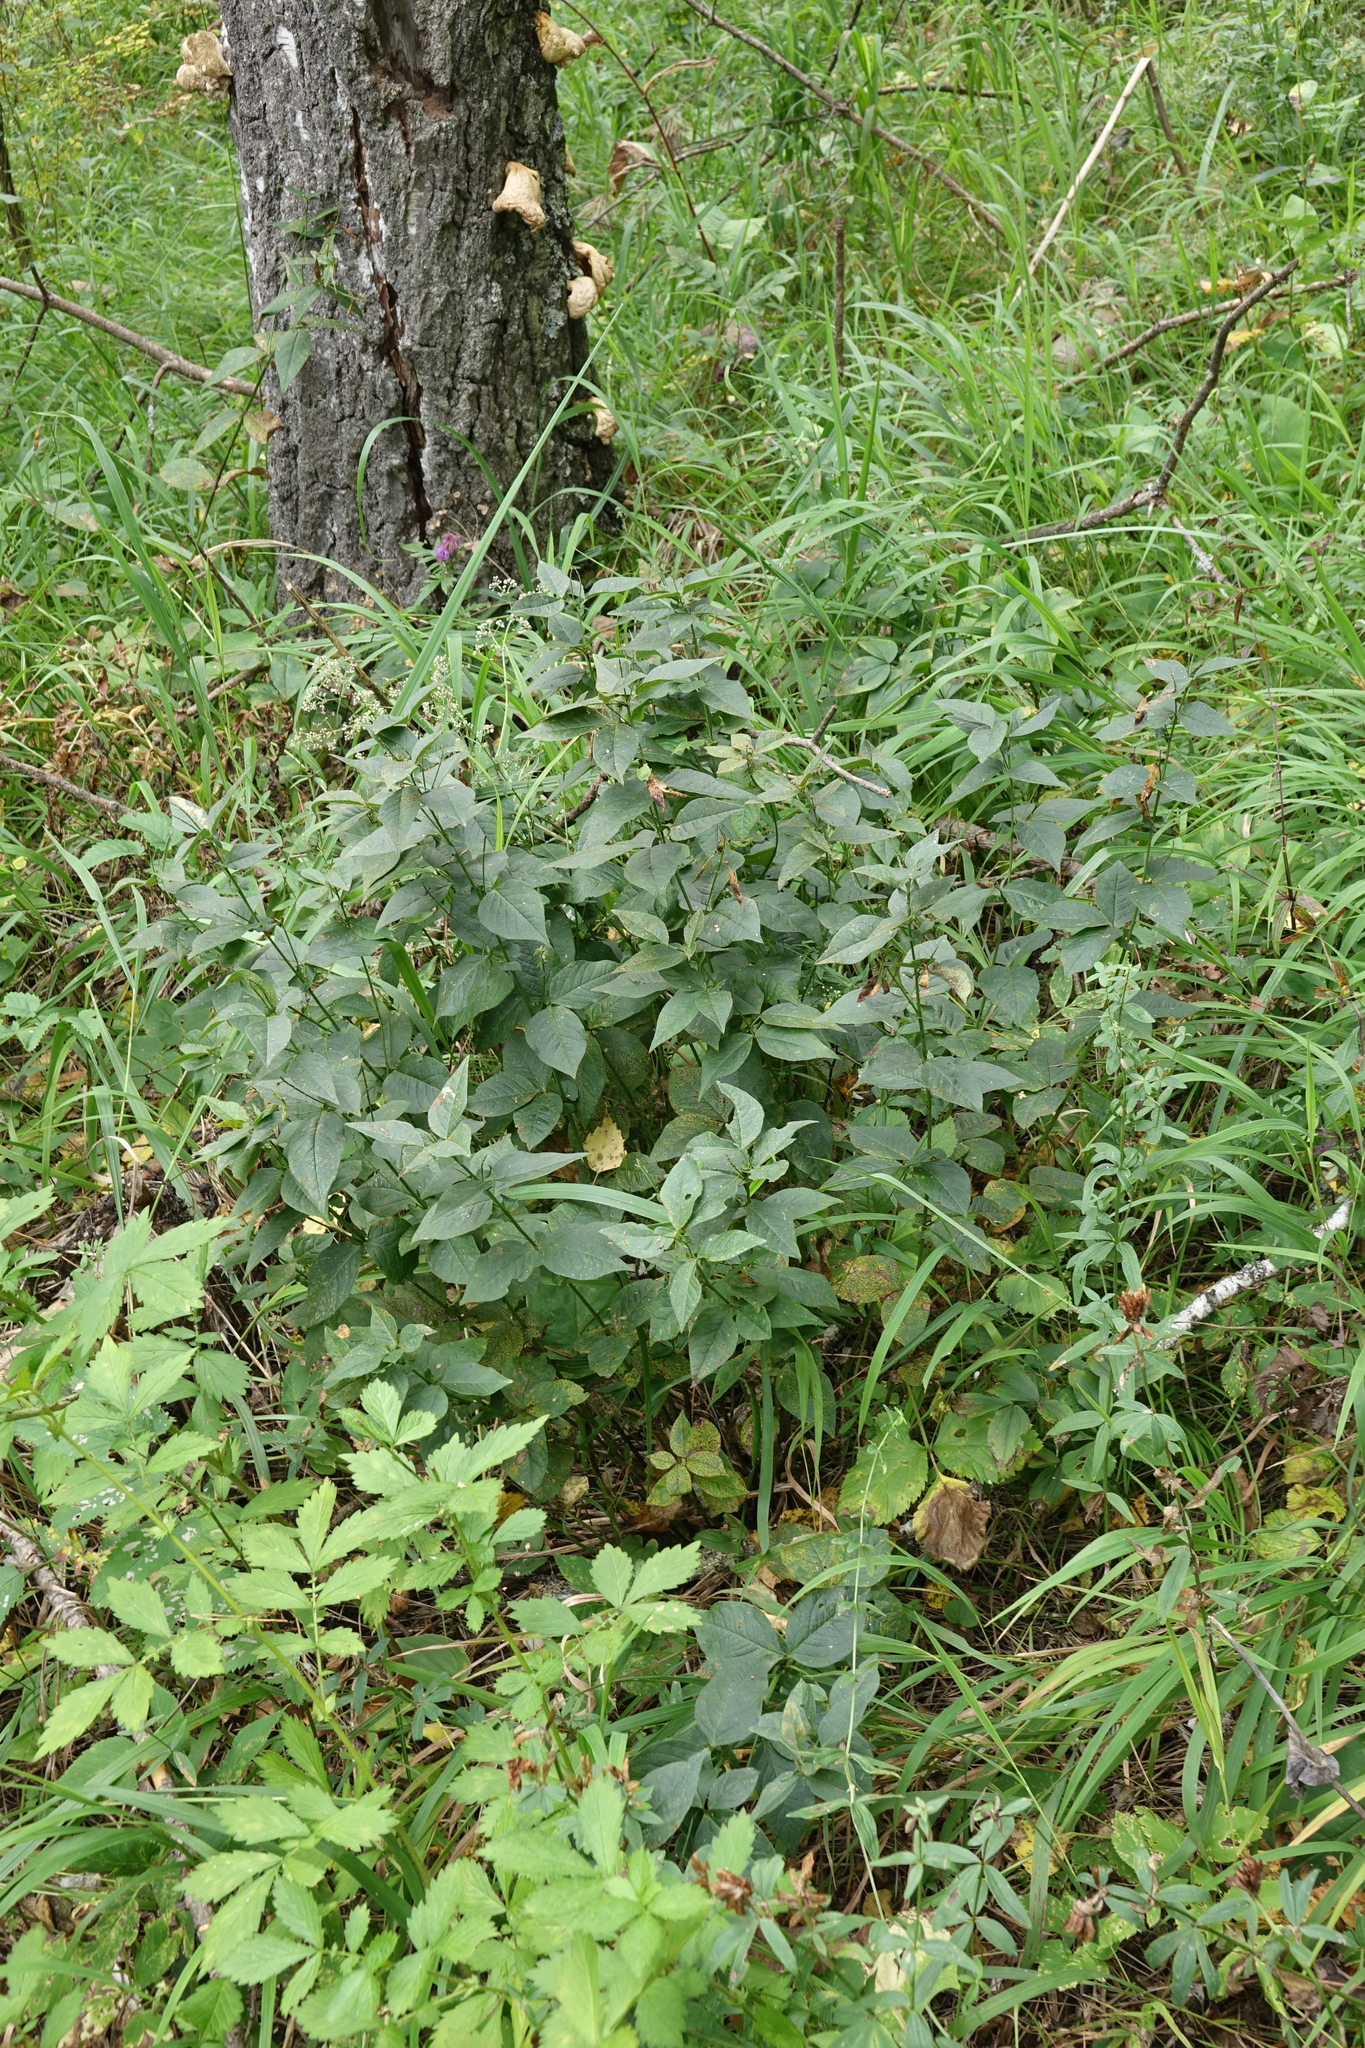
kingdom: Plantae
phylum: Tracheophyta
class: Magnoliopsida
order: Fabales
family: Fabaceae
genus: Vicia
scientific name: Vicia unijuga
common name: Two-leaf vetch
